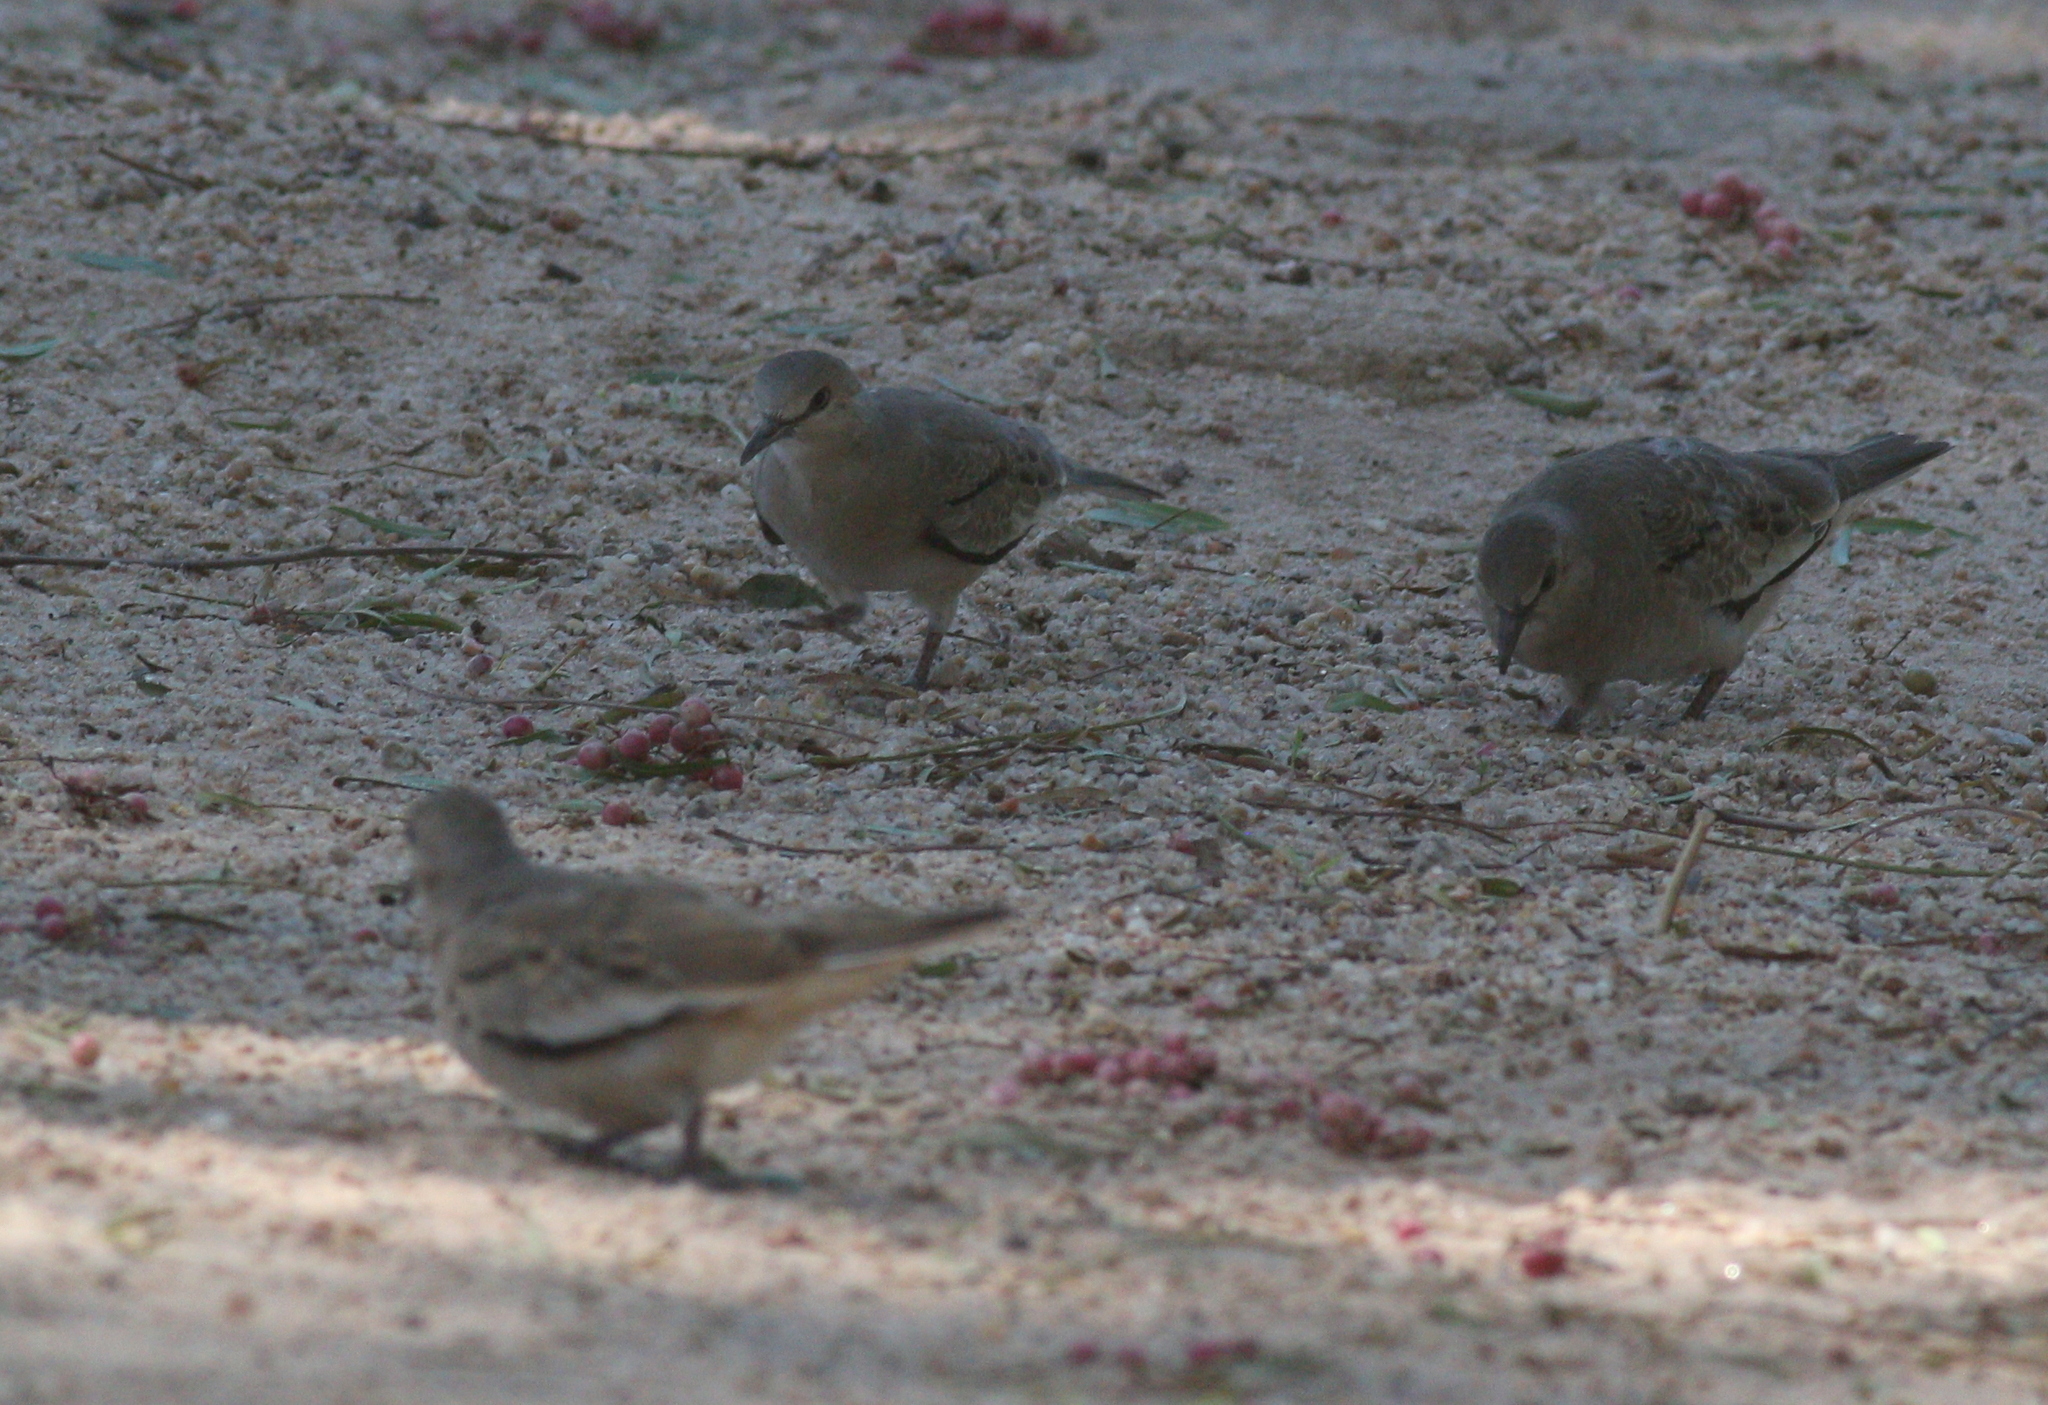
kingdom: Animalia
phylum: Chordata
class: Aves
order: Columbiformes
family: Columbidae
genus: Columbina
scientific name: Columbina picui
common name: Picui ground dove
